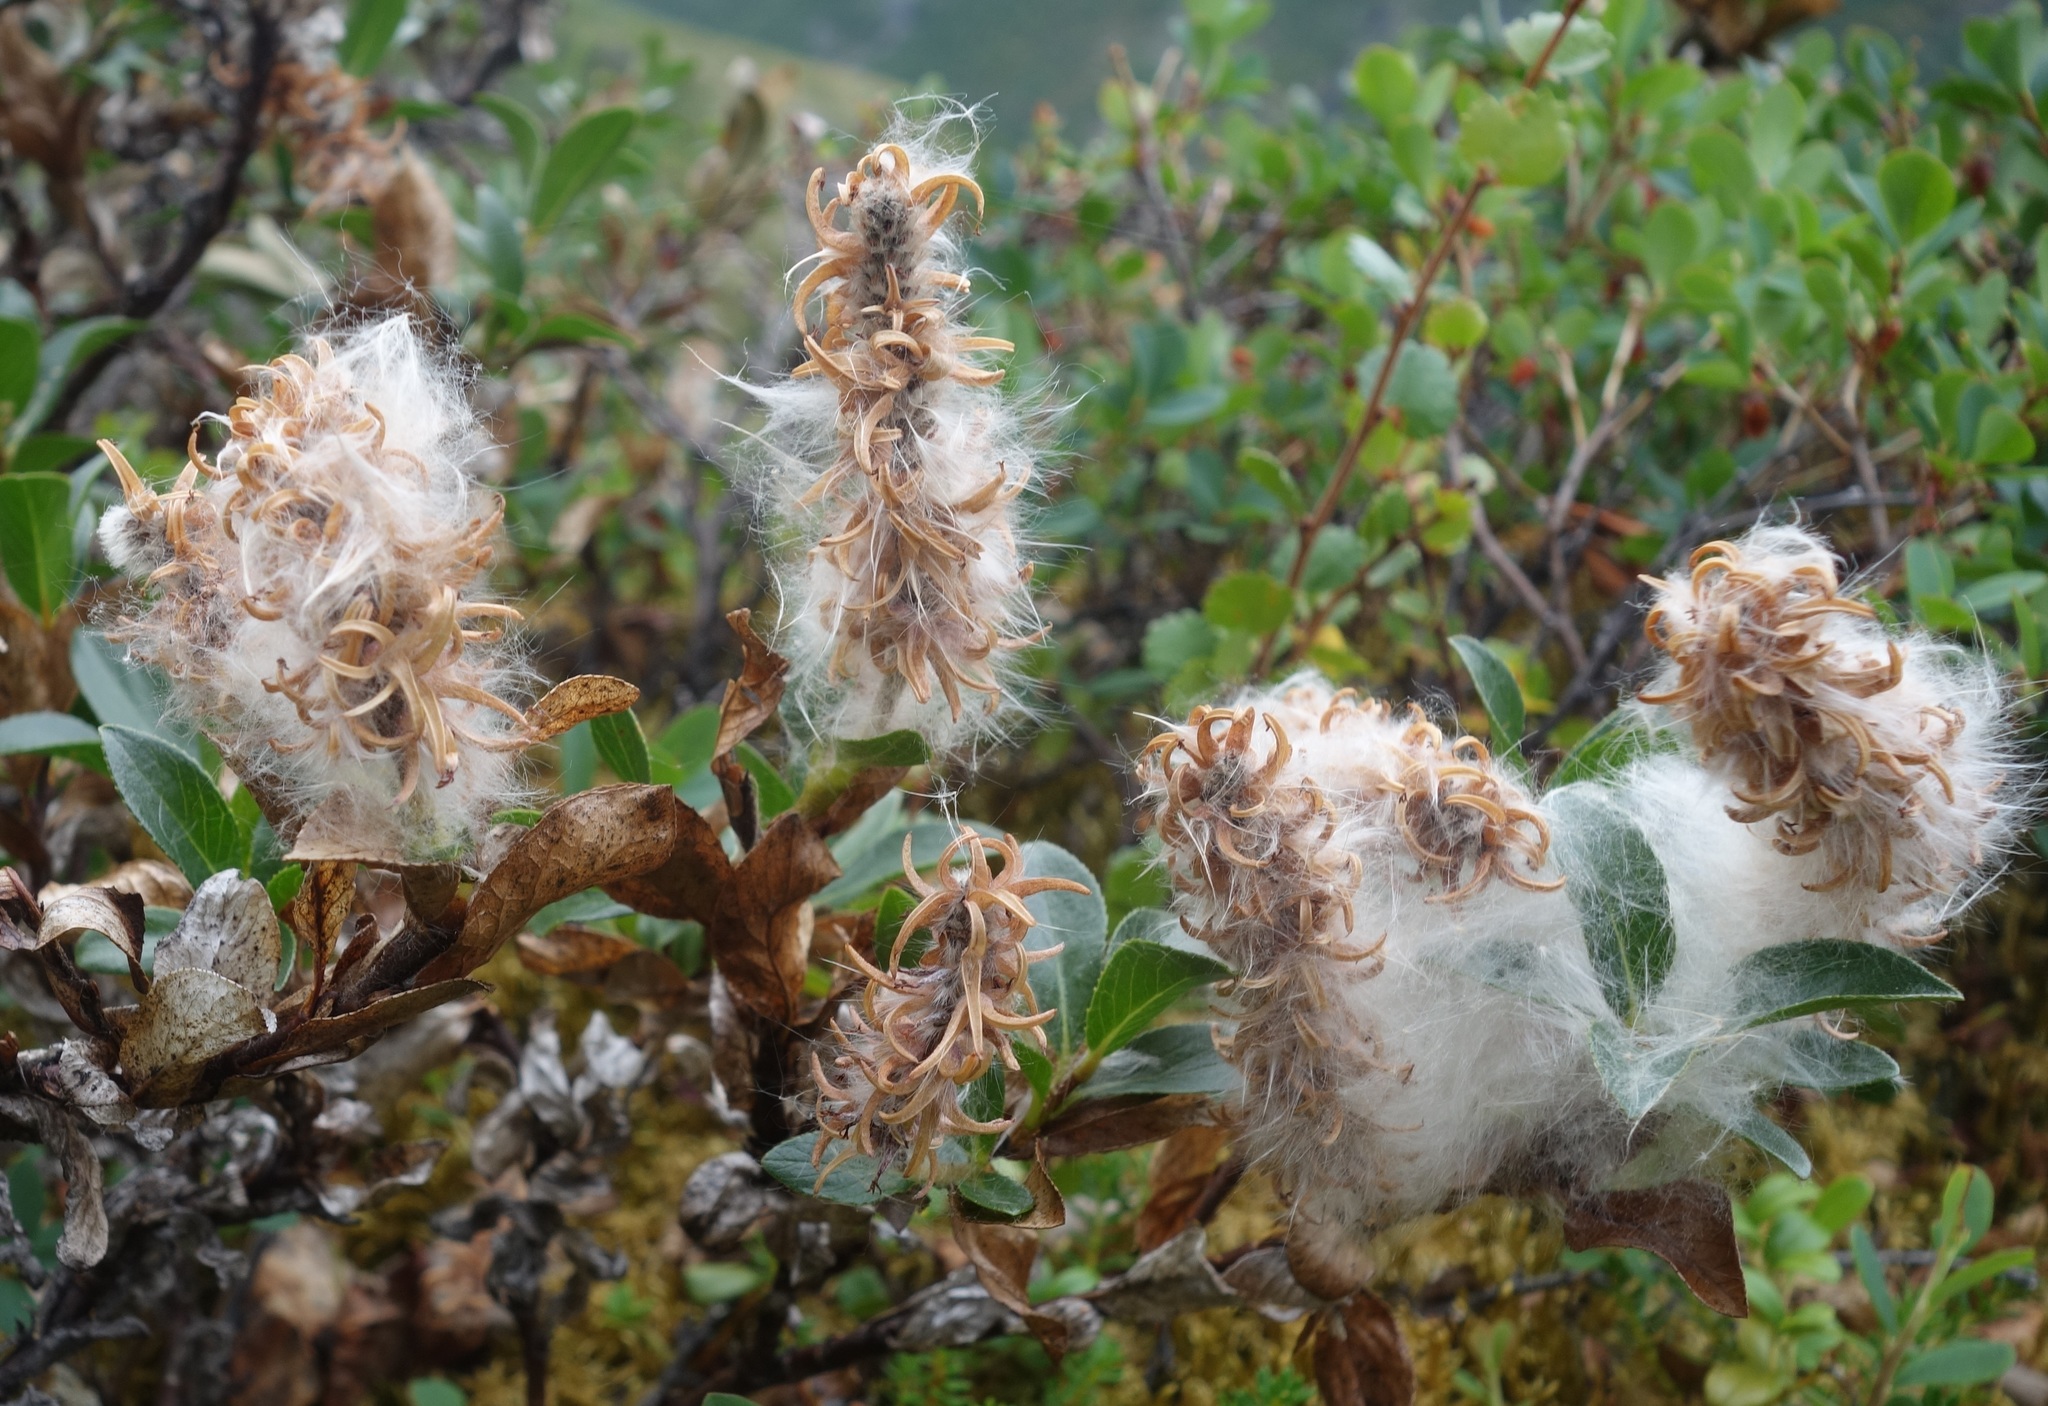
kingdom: Plantae
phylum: Tracheophyta
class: Magnoliopsida
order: Malpighiales
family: Salicaceae
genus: Salix
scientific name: Salix myrsinites
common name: Myrtle willow
